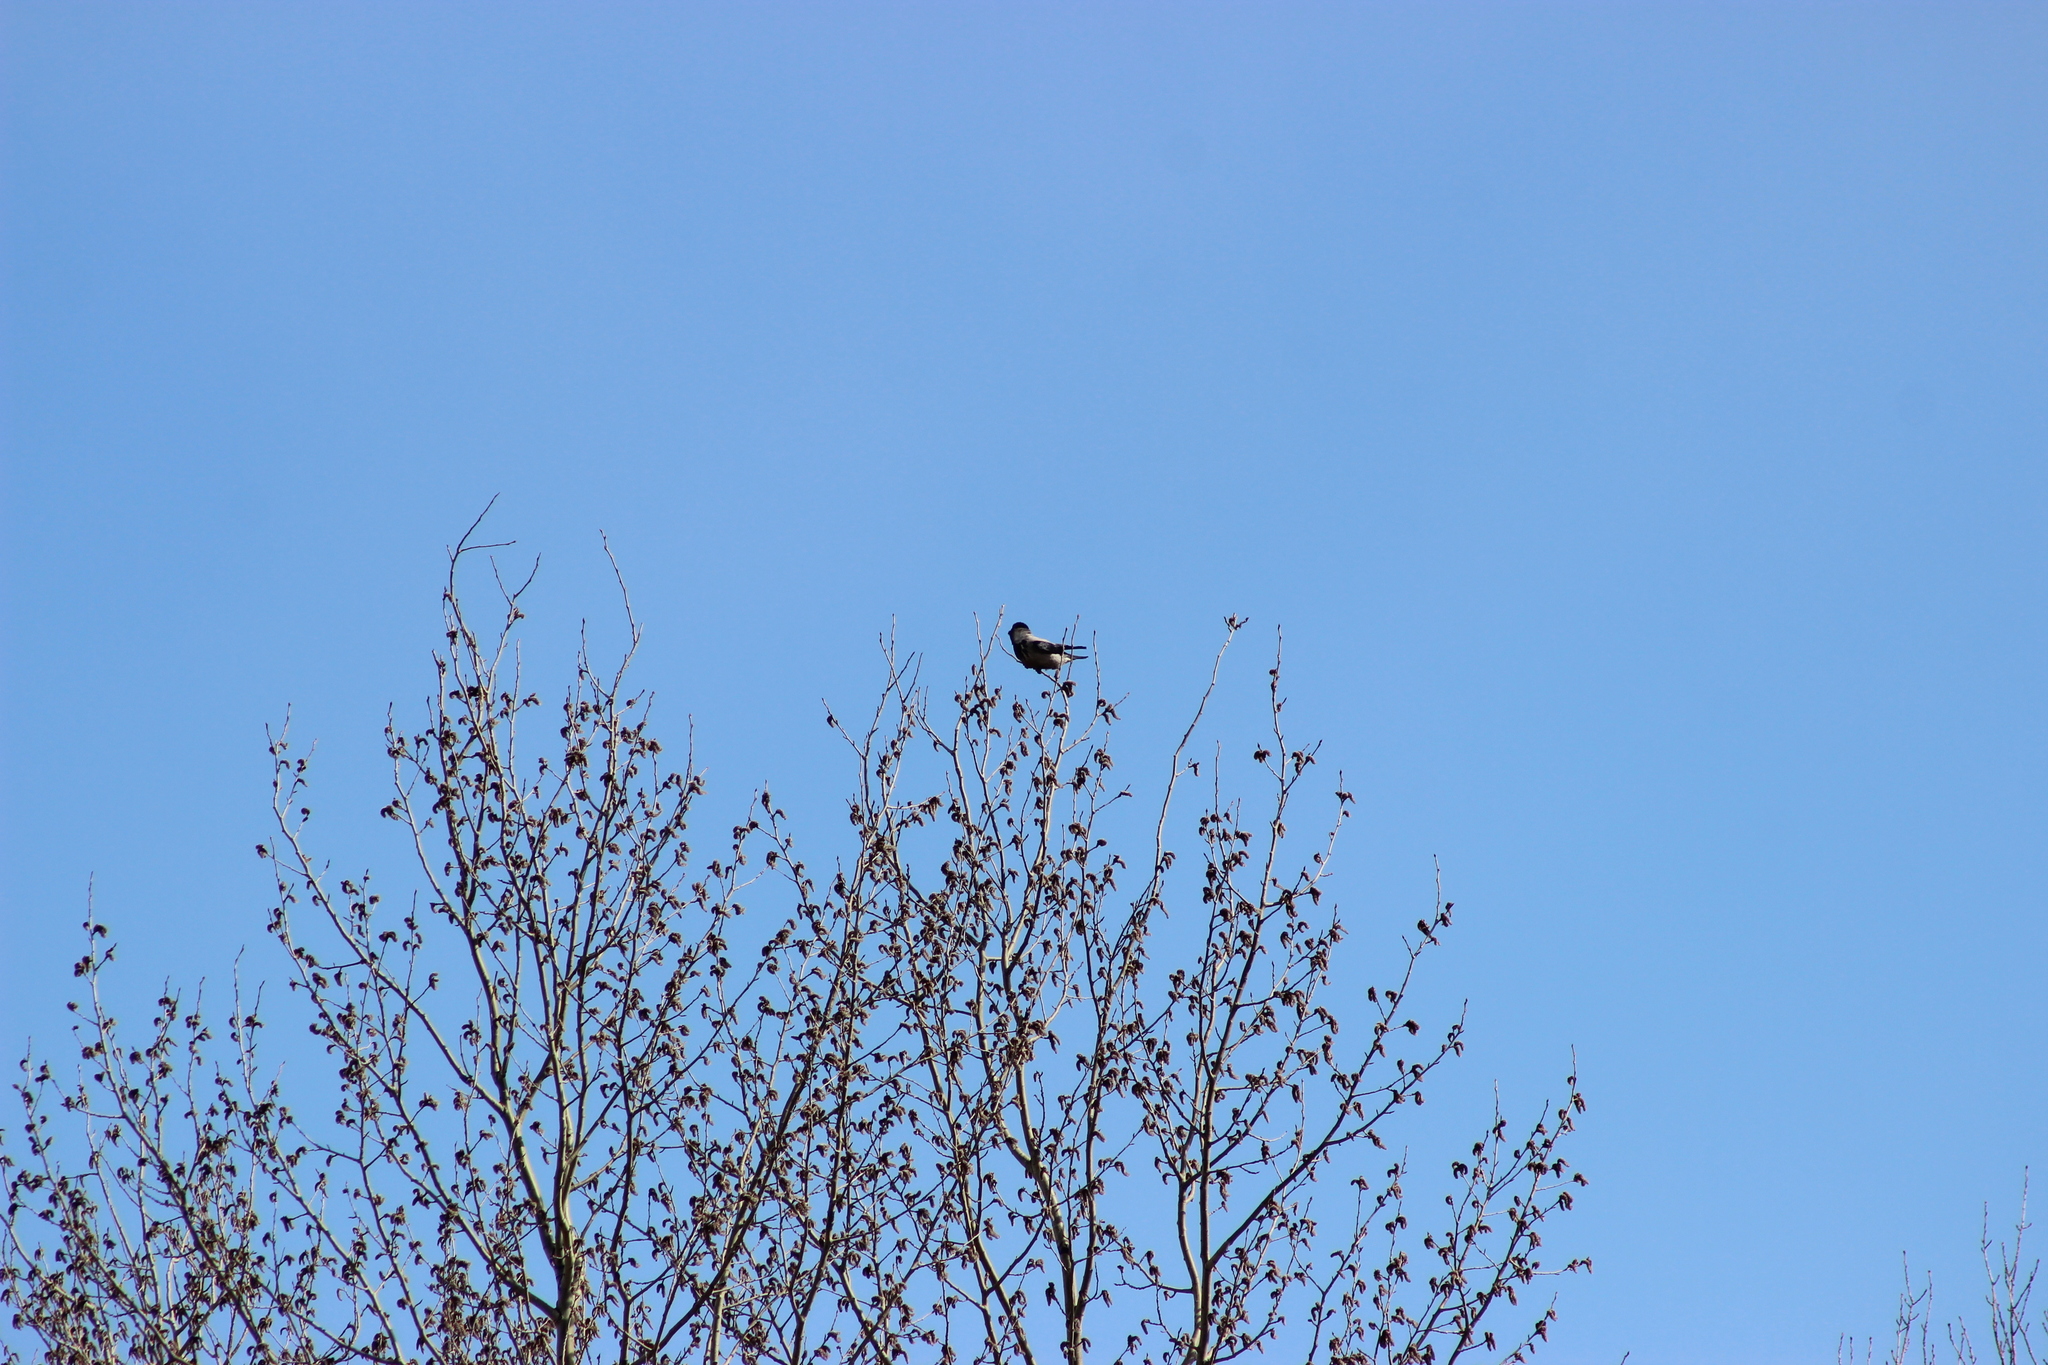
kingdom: Animalia
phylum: Chordata
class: Aves
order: Passeriformes
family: Corvidae
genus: Corvus
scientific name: Corvus cornix
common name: Hooded crow
